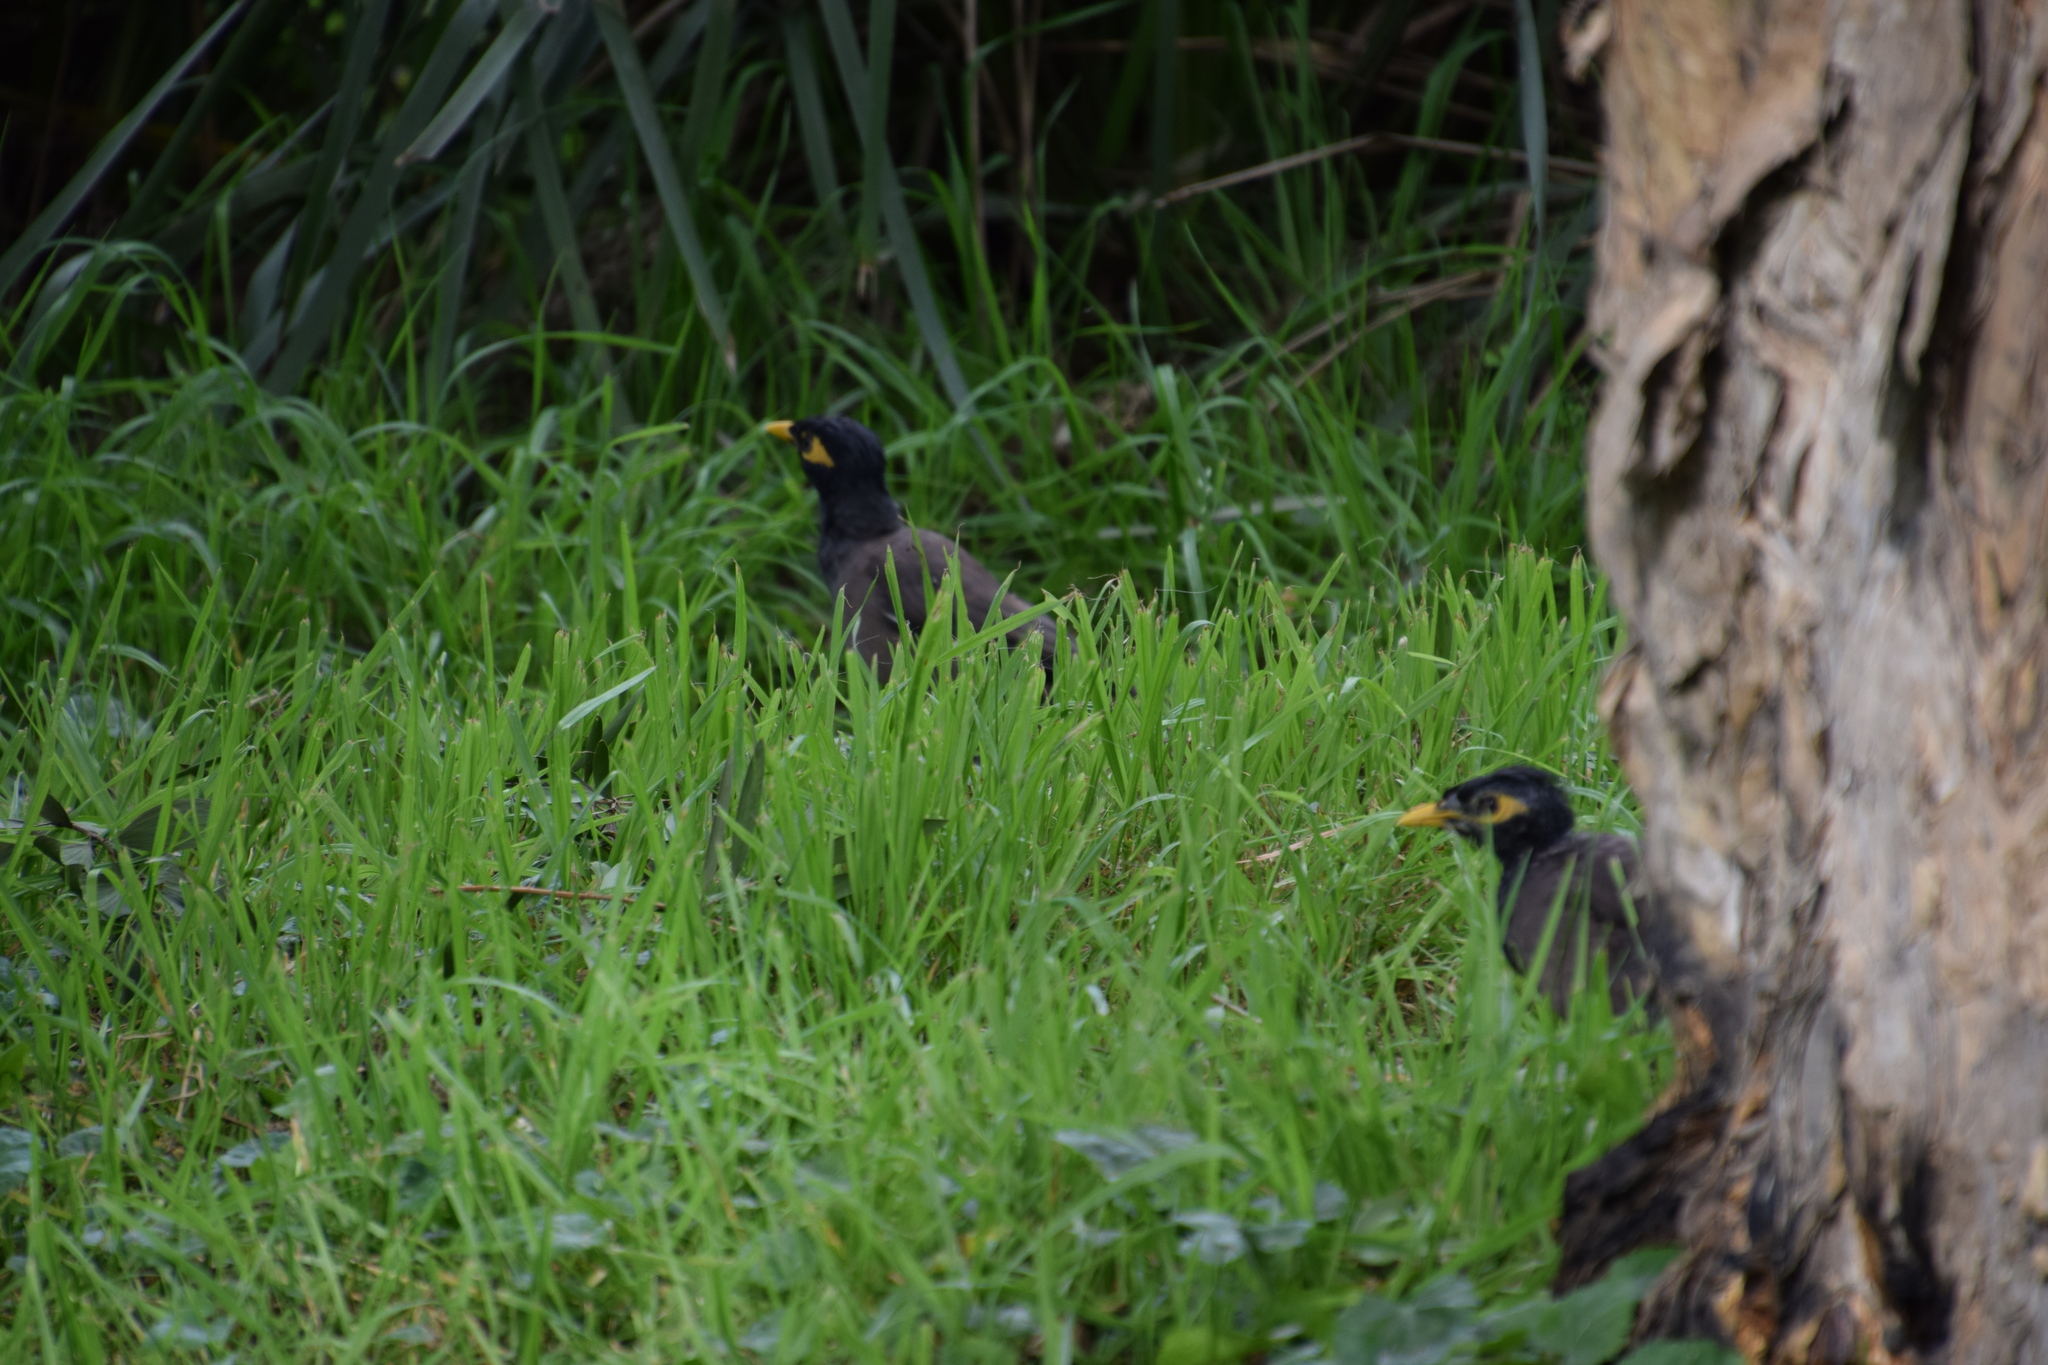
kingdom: Animalia
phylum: Chordata
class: Aves
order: Passeriformes
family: Sturnidae
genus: Acridotheres
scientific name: Acridotheres tristis
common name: Common myna
